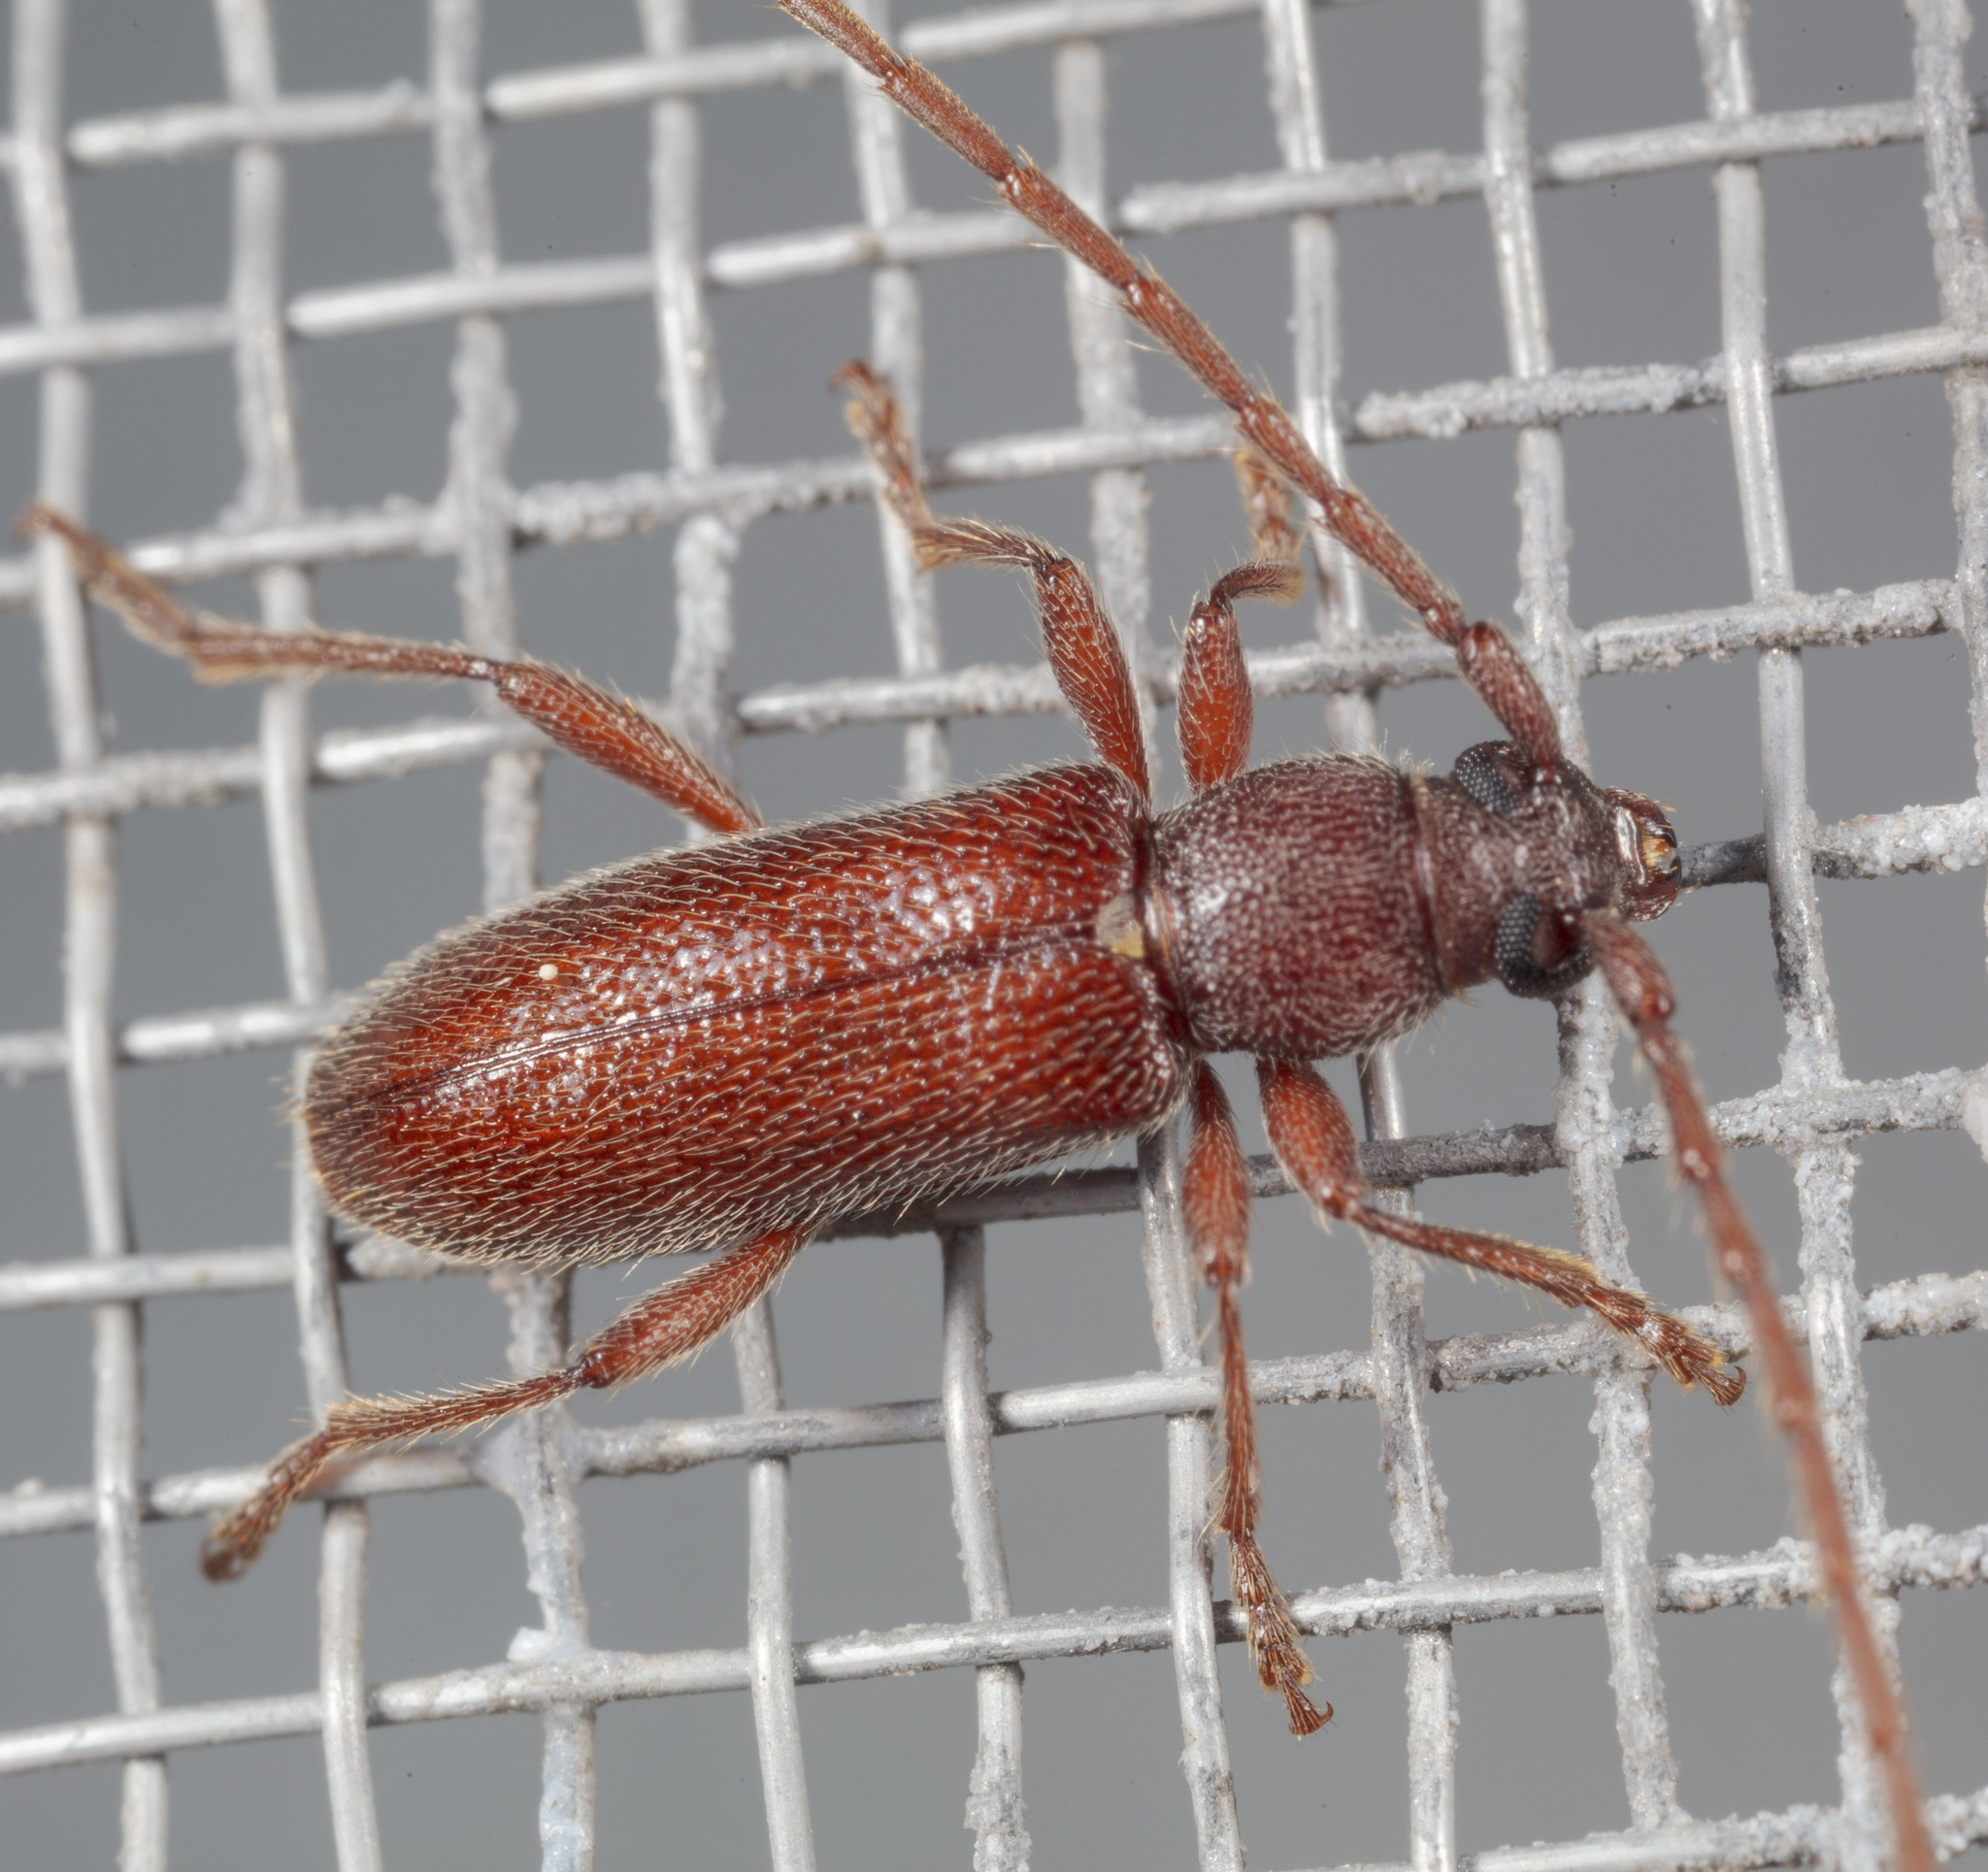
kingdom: Animalia
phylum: Arthropoda
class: Insecta
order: Coleoptera
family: Cerambycidae
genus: Anelaphus
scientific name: Anelaphus moestus
